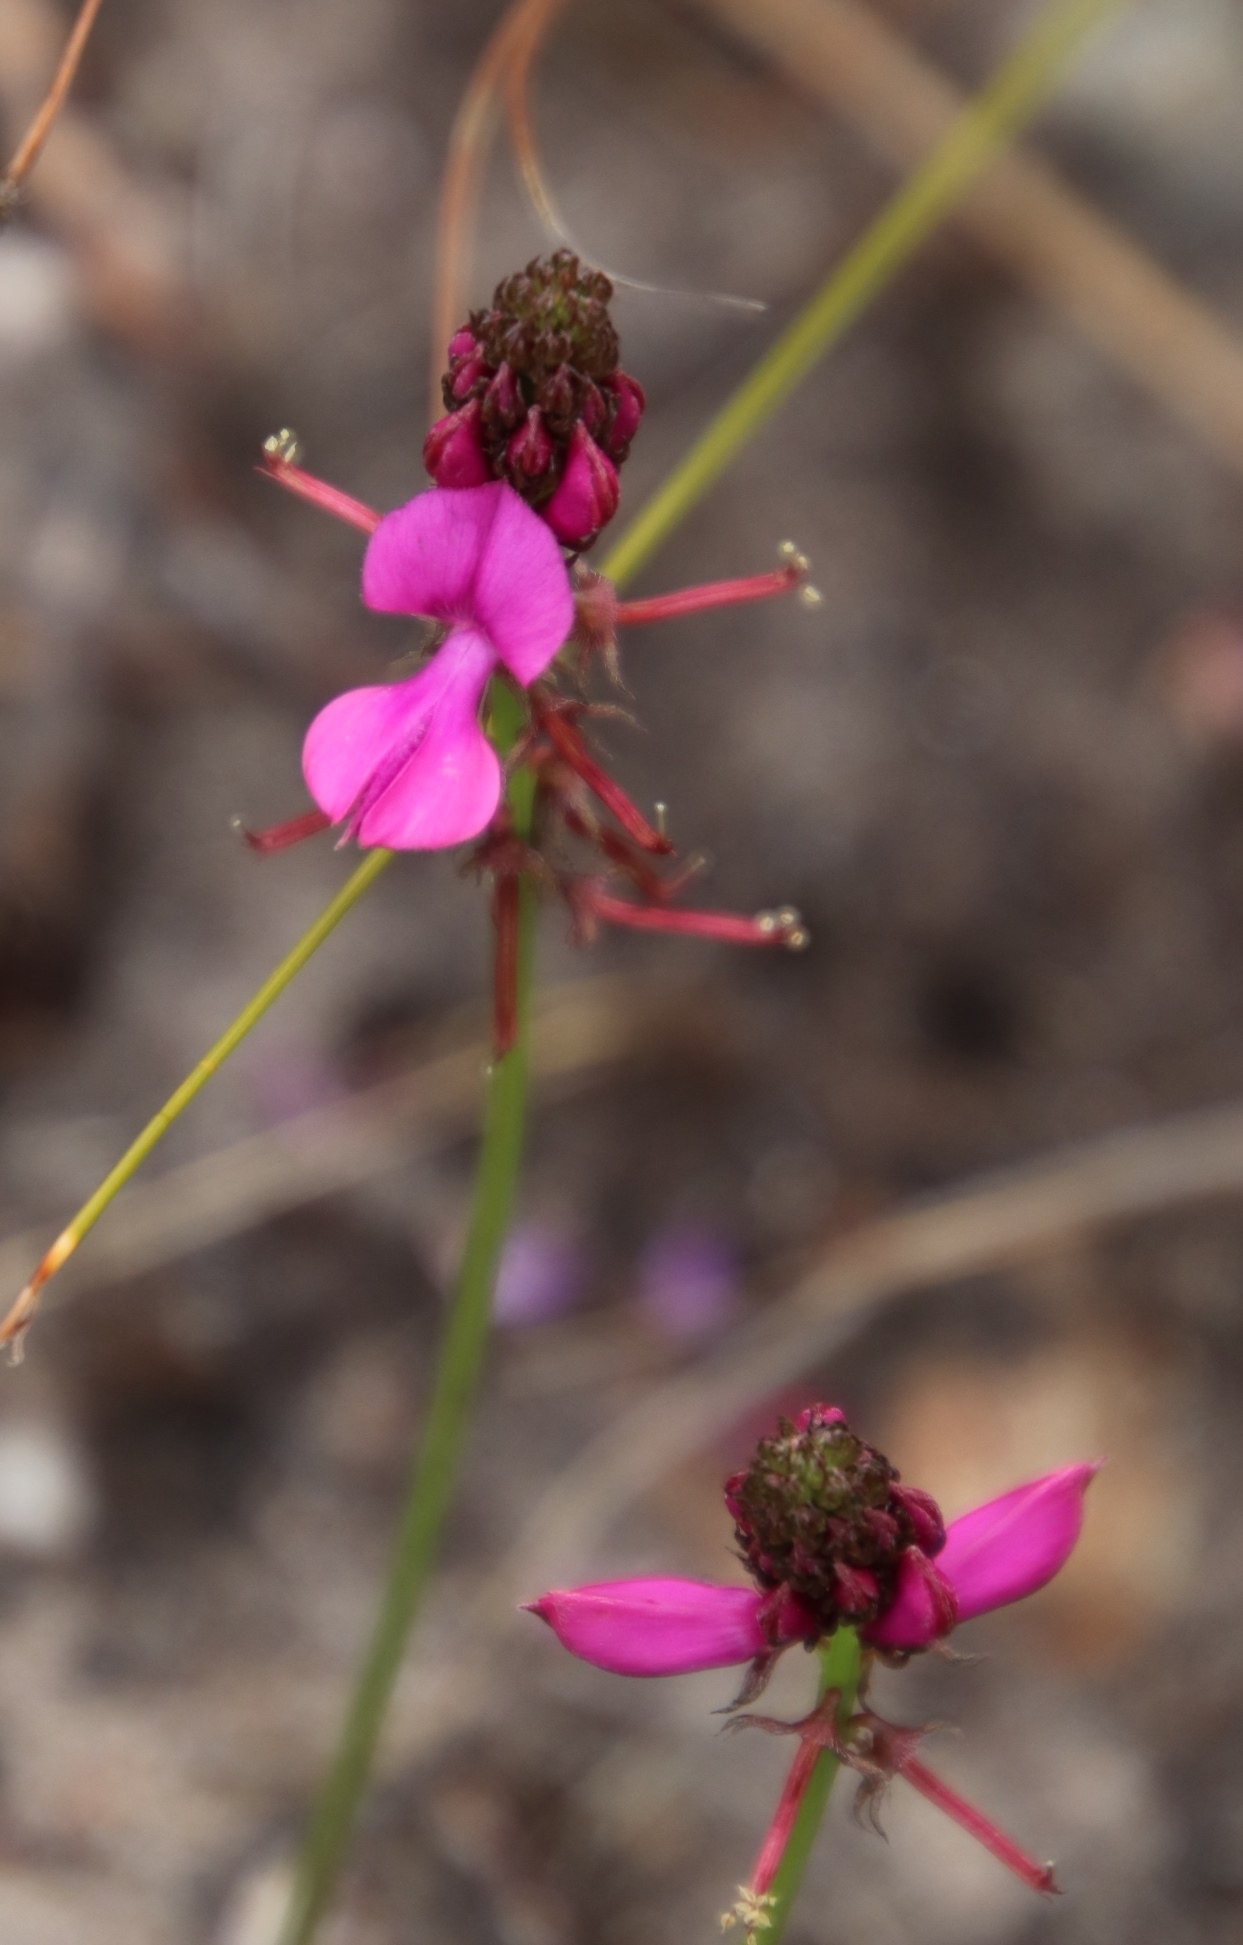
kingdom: Plantae
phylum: Tracheophyta
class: Magnoliopsida
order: Fabales
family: Fabaceae
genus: Indigofera
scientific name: Indigofera capillaris
